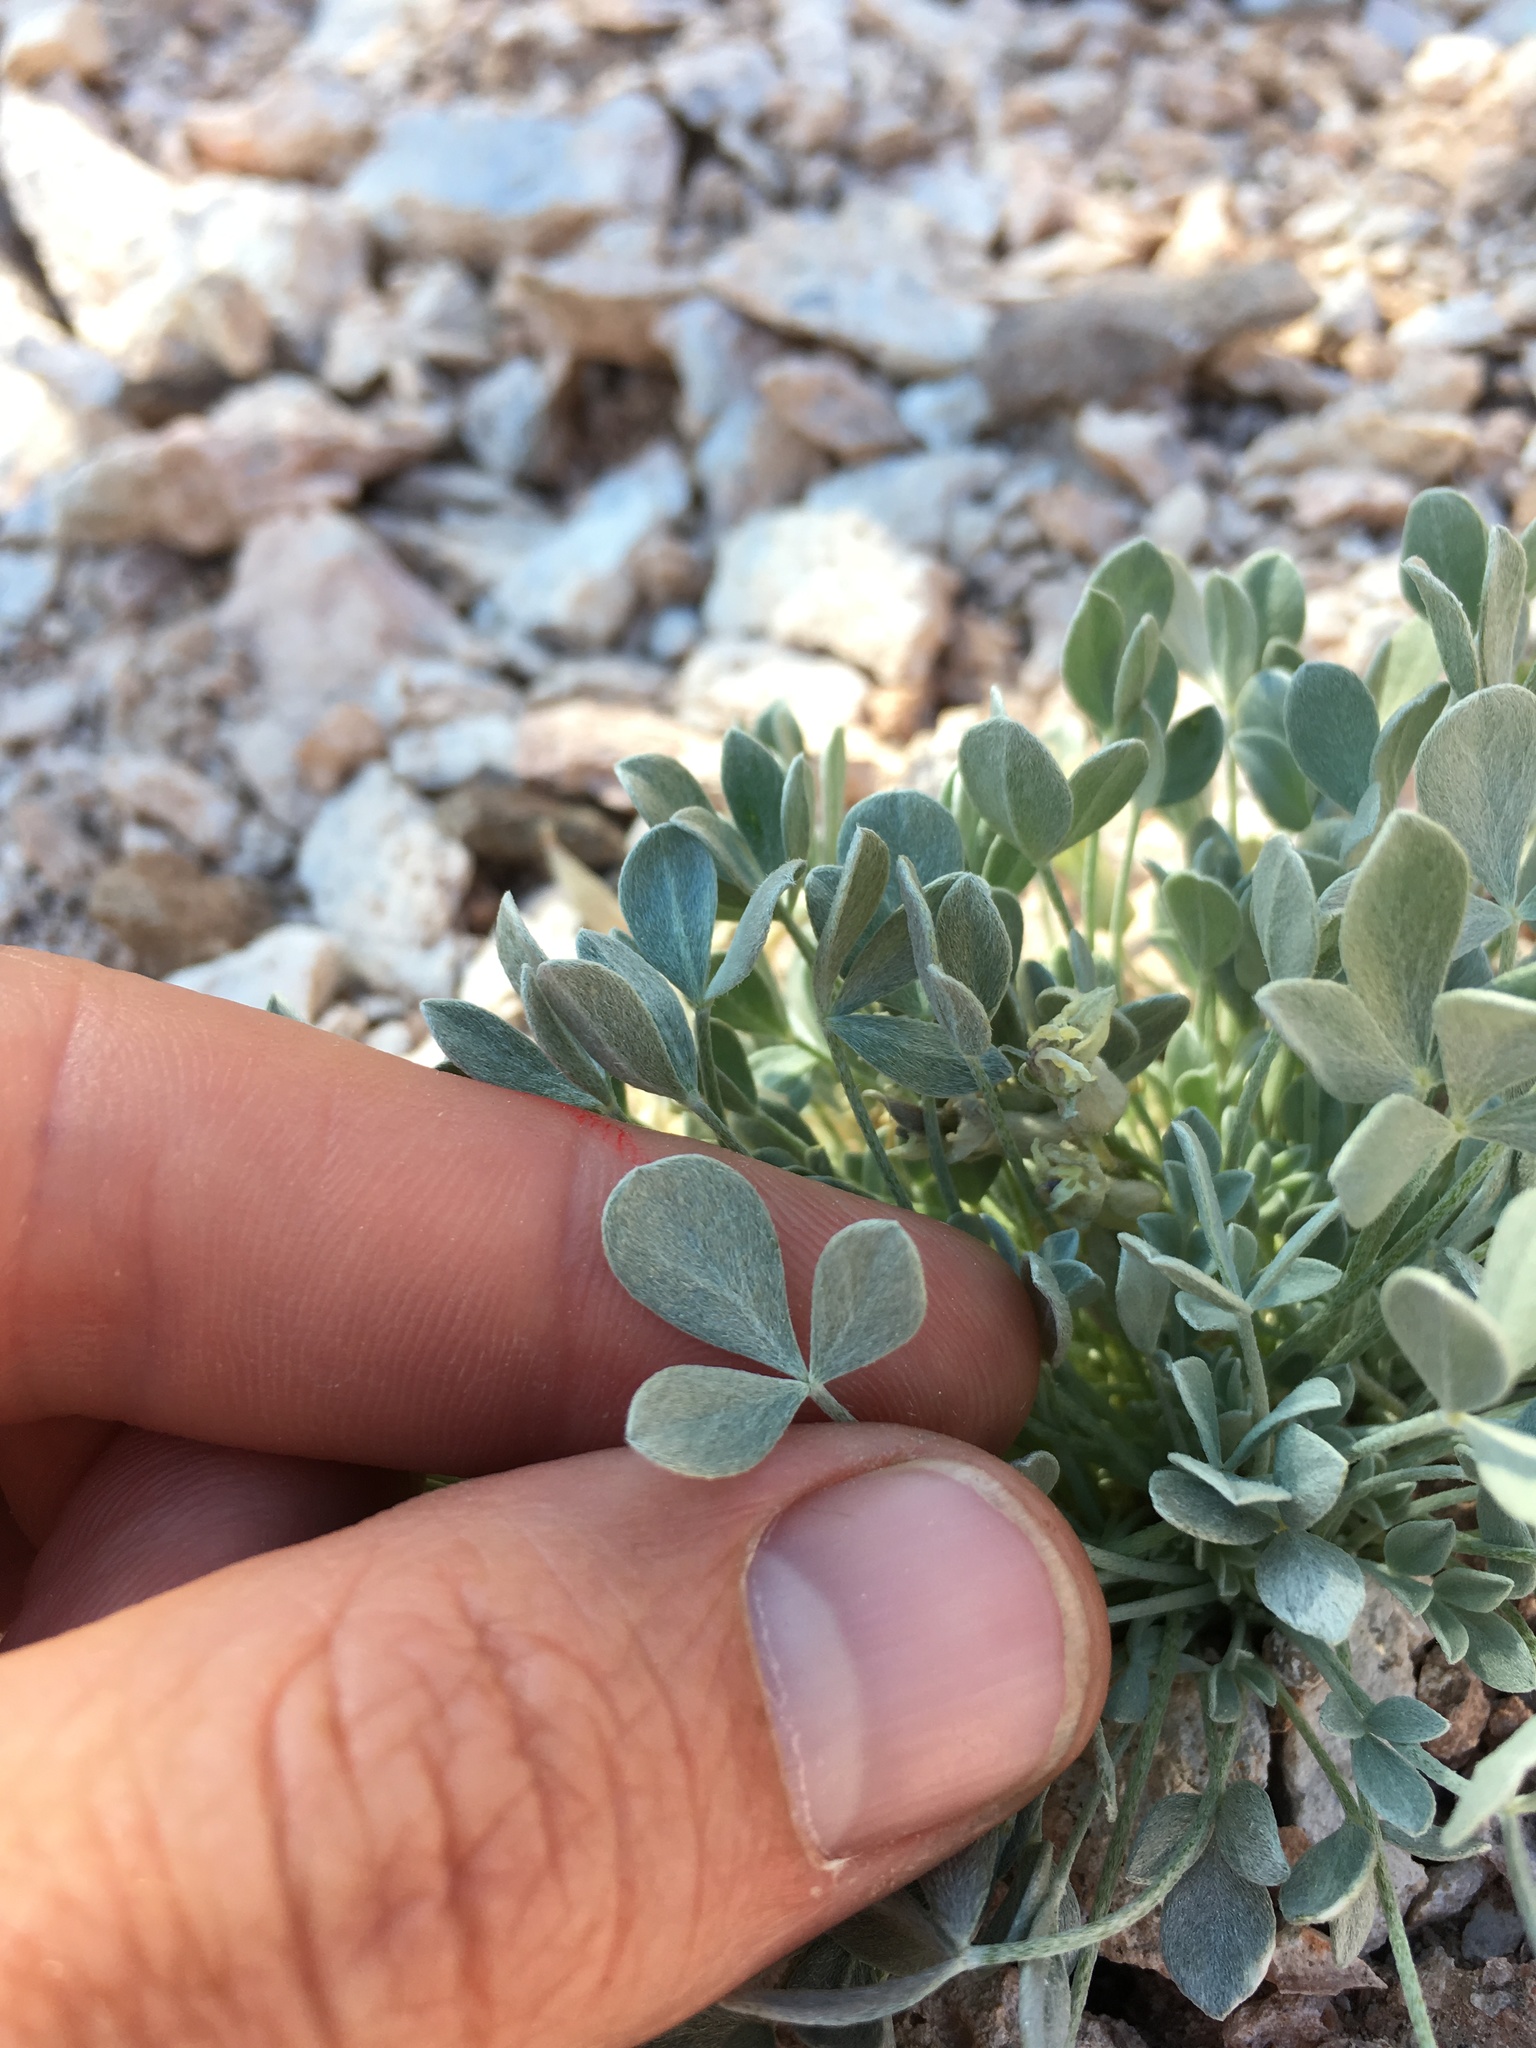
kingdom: Plantae
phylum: Tracheophyta
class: Magnoliopsida
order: Fabales
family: Fabaceae
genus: Astragalus
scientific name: Astragalus calycosus
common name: King's milkvetch
